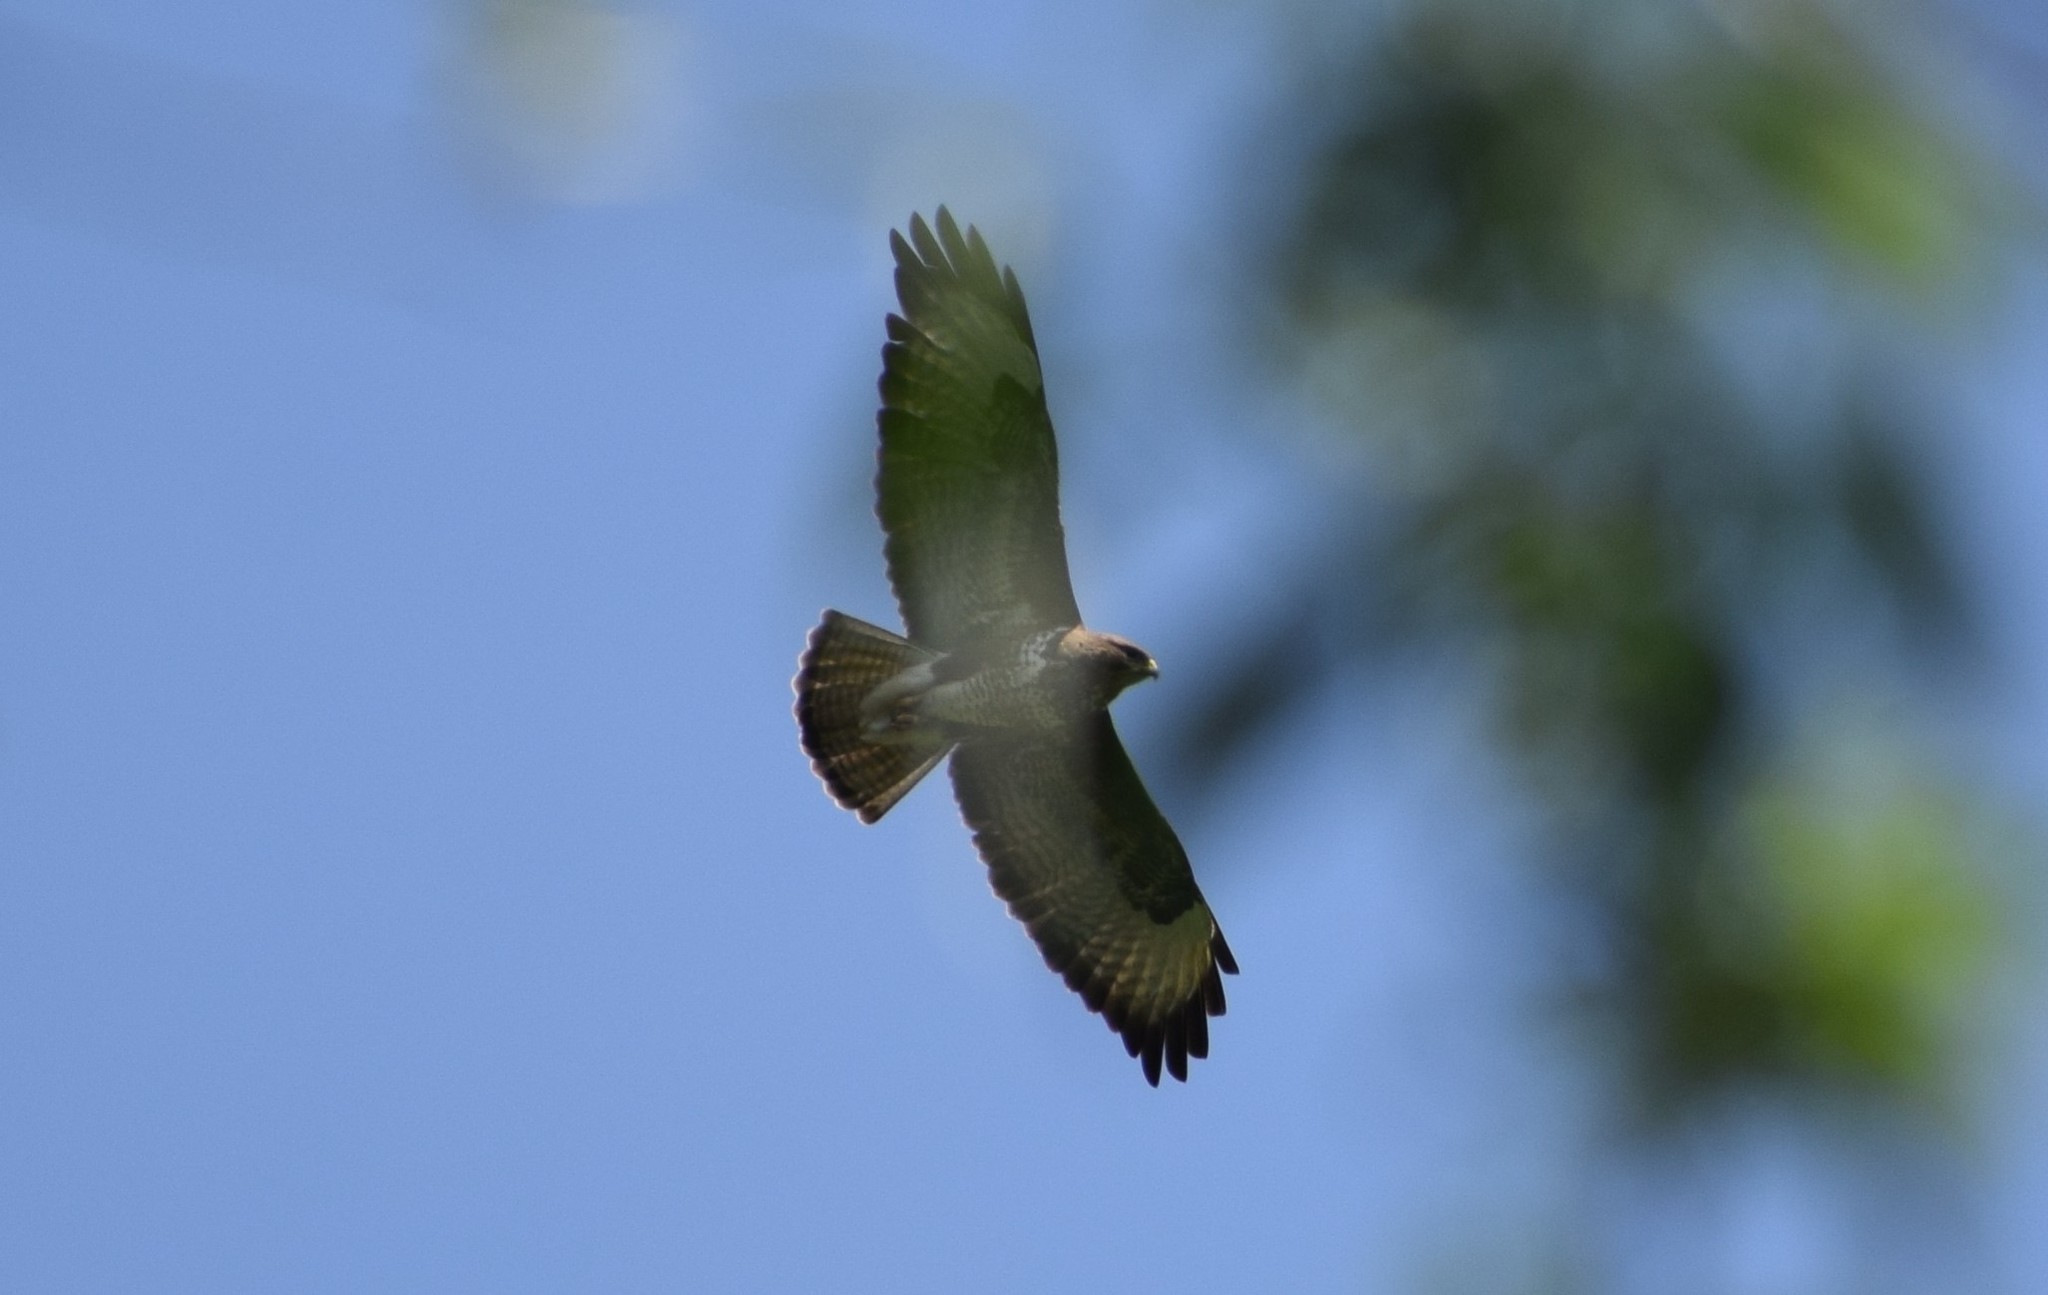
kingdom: Animalia
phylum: Chordata
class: Aves
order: Accipitriformes
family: Accipitridae
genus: Buteo
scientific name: Buteo buteo
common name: Common buzzard
